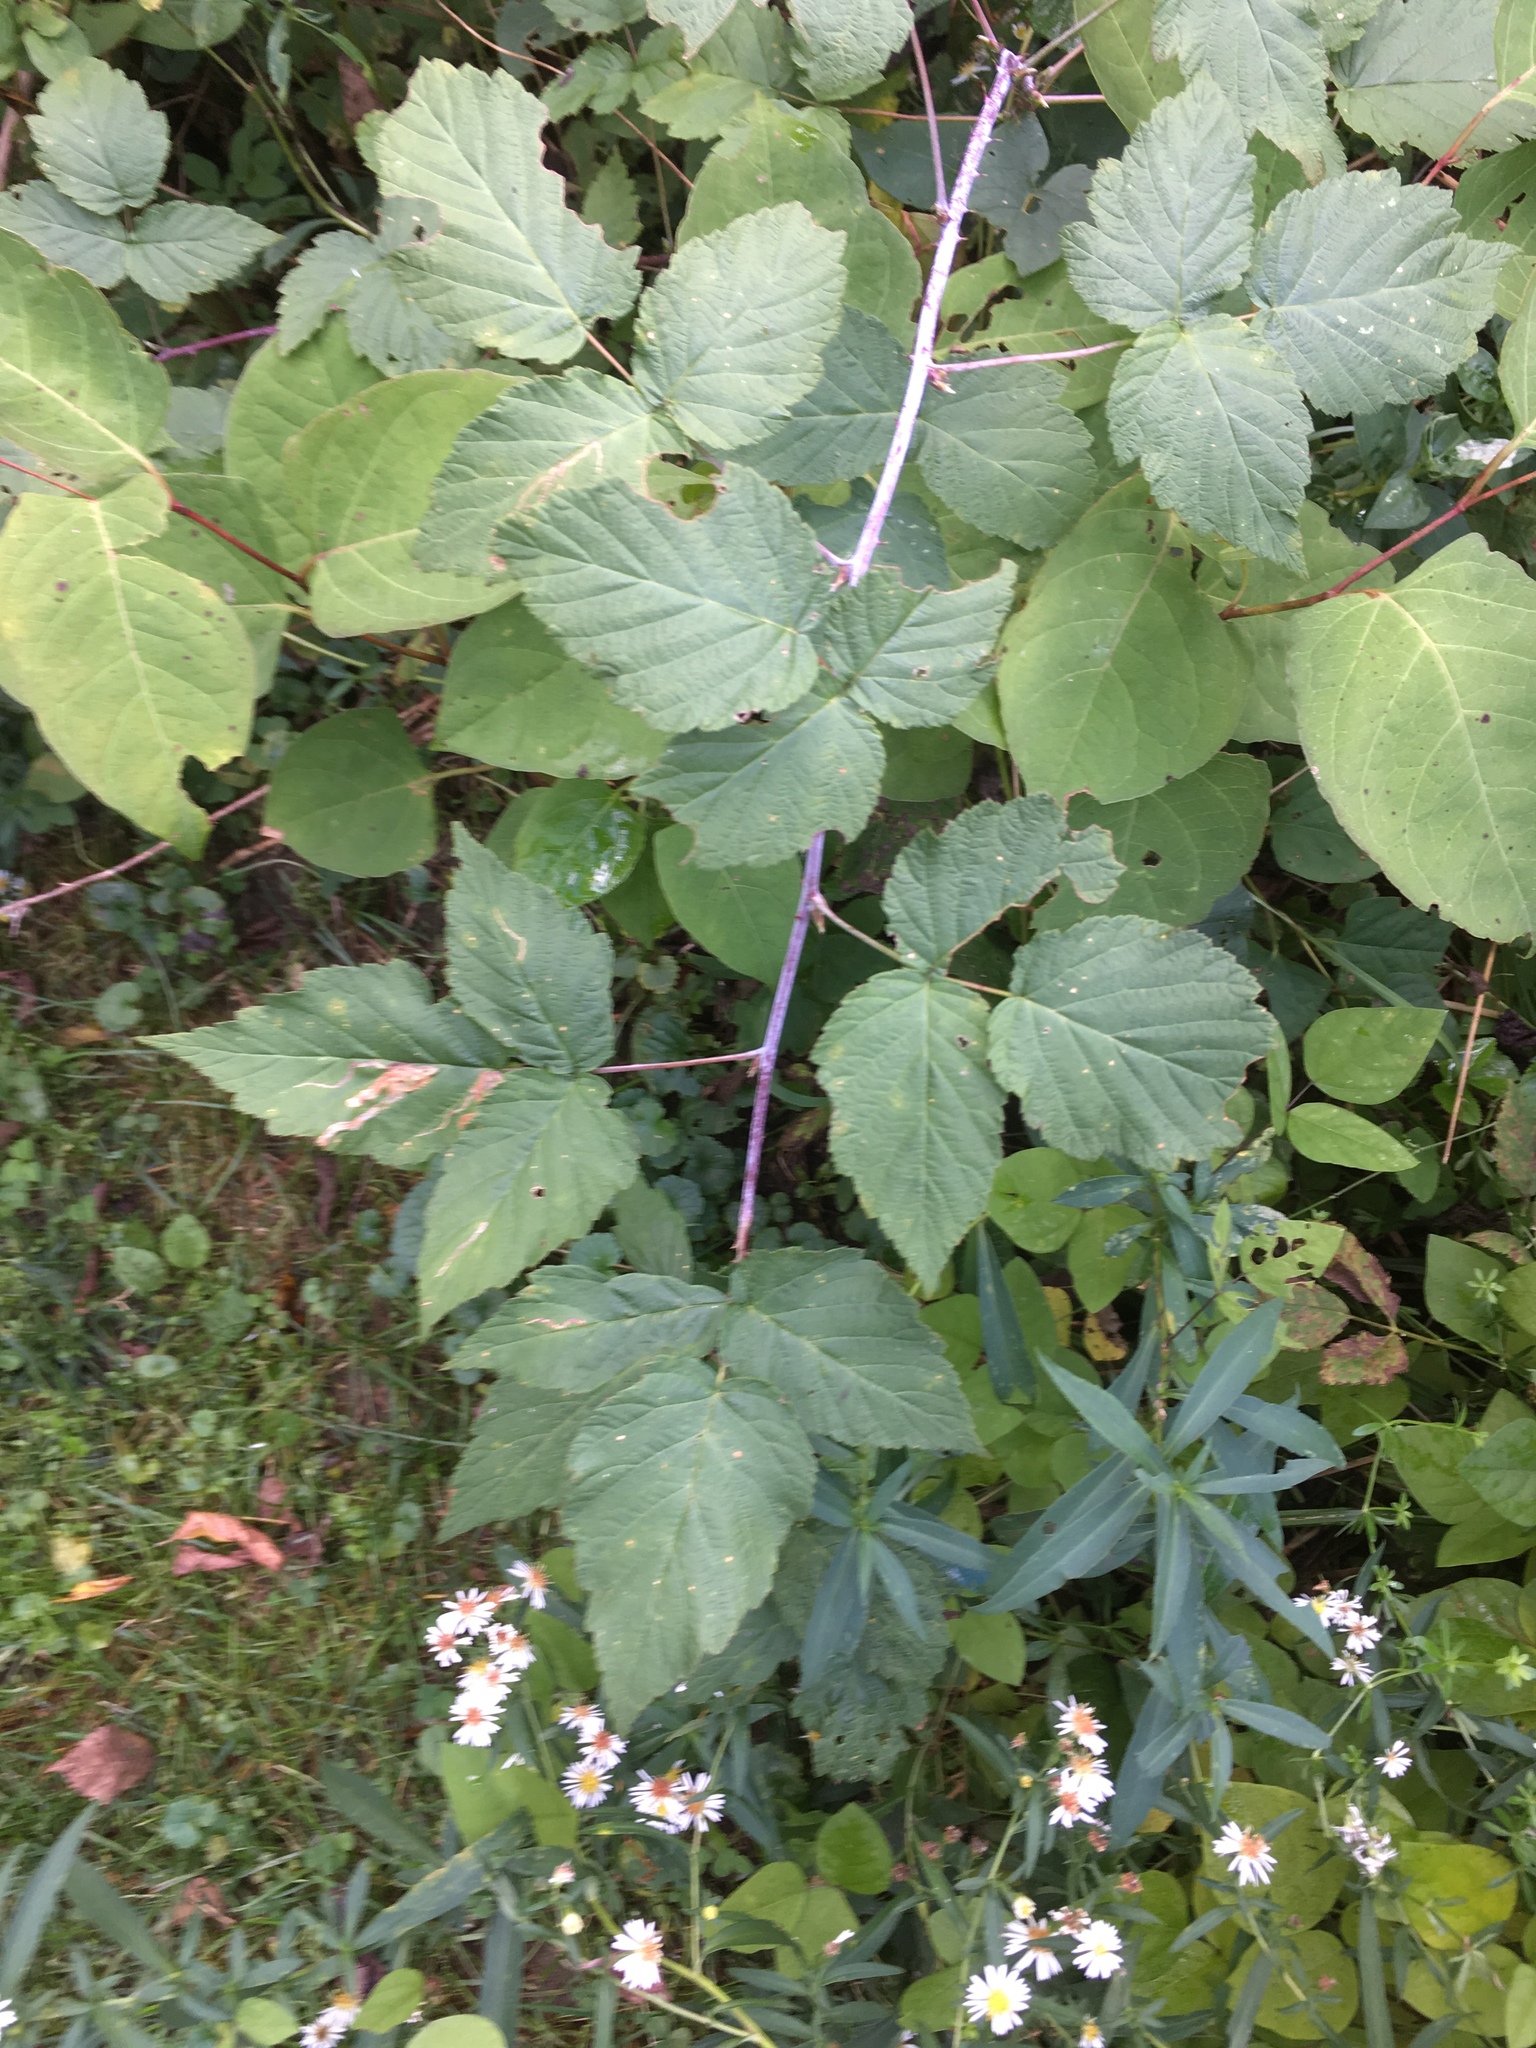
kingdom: Plantae
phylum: Tracheophyta
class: Magnoliopsida
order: Rosales
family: Rosaceae
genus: Rubus
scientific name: Rubus occidentalis
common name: Black raspberry
